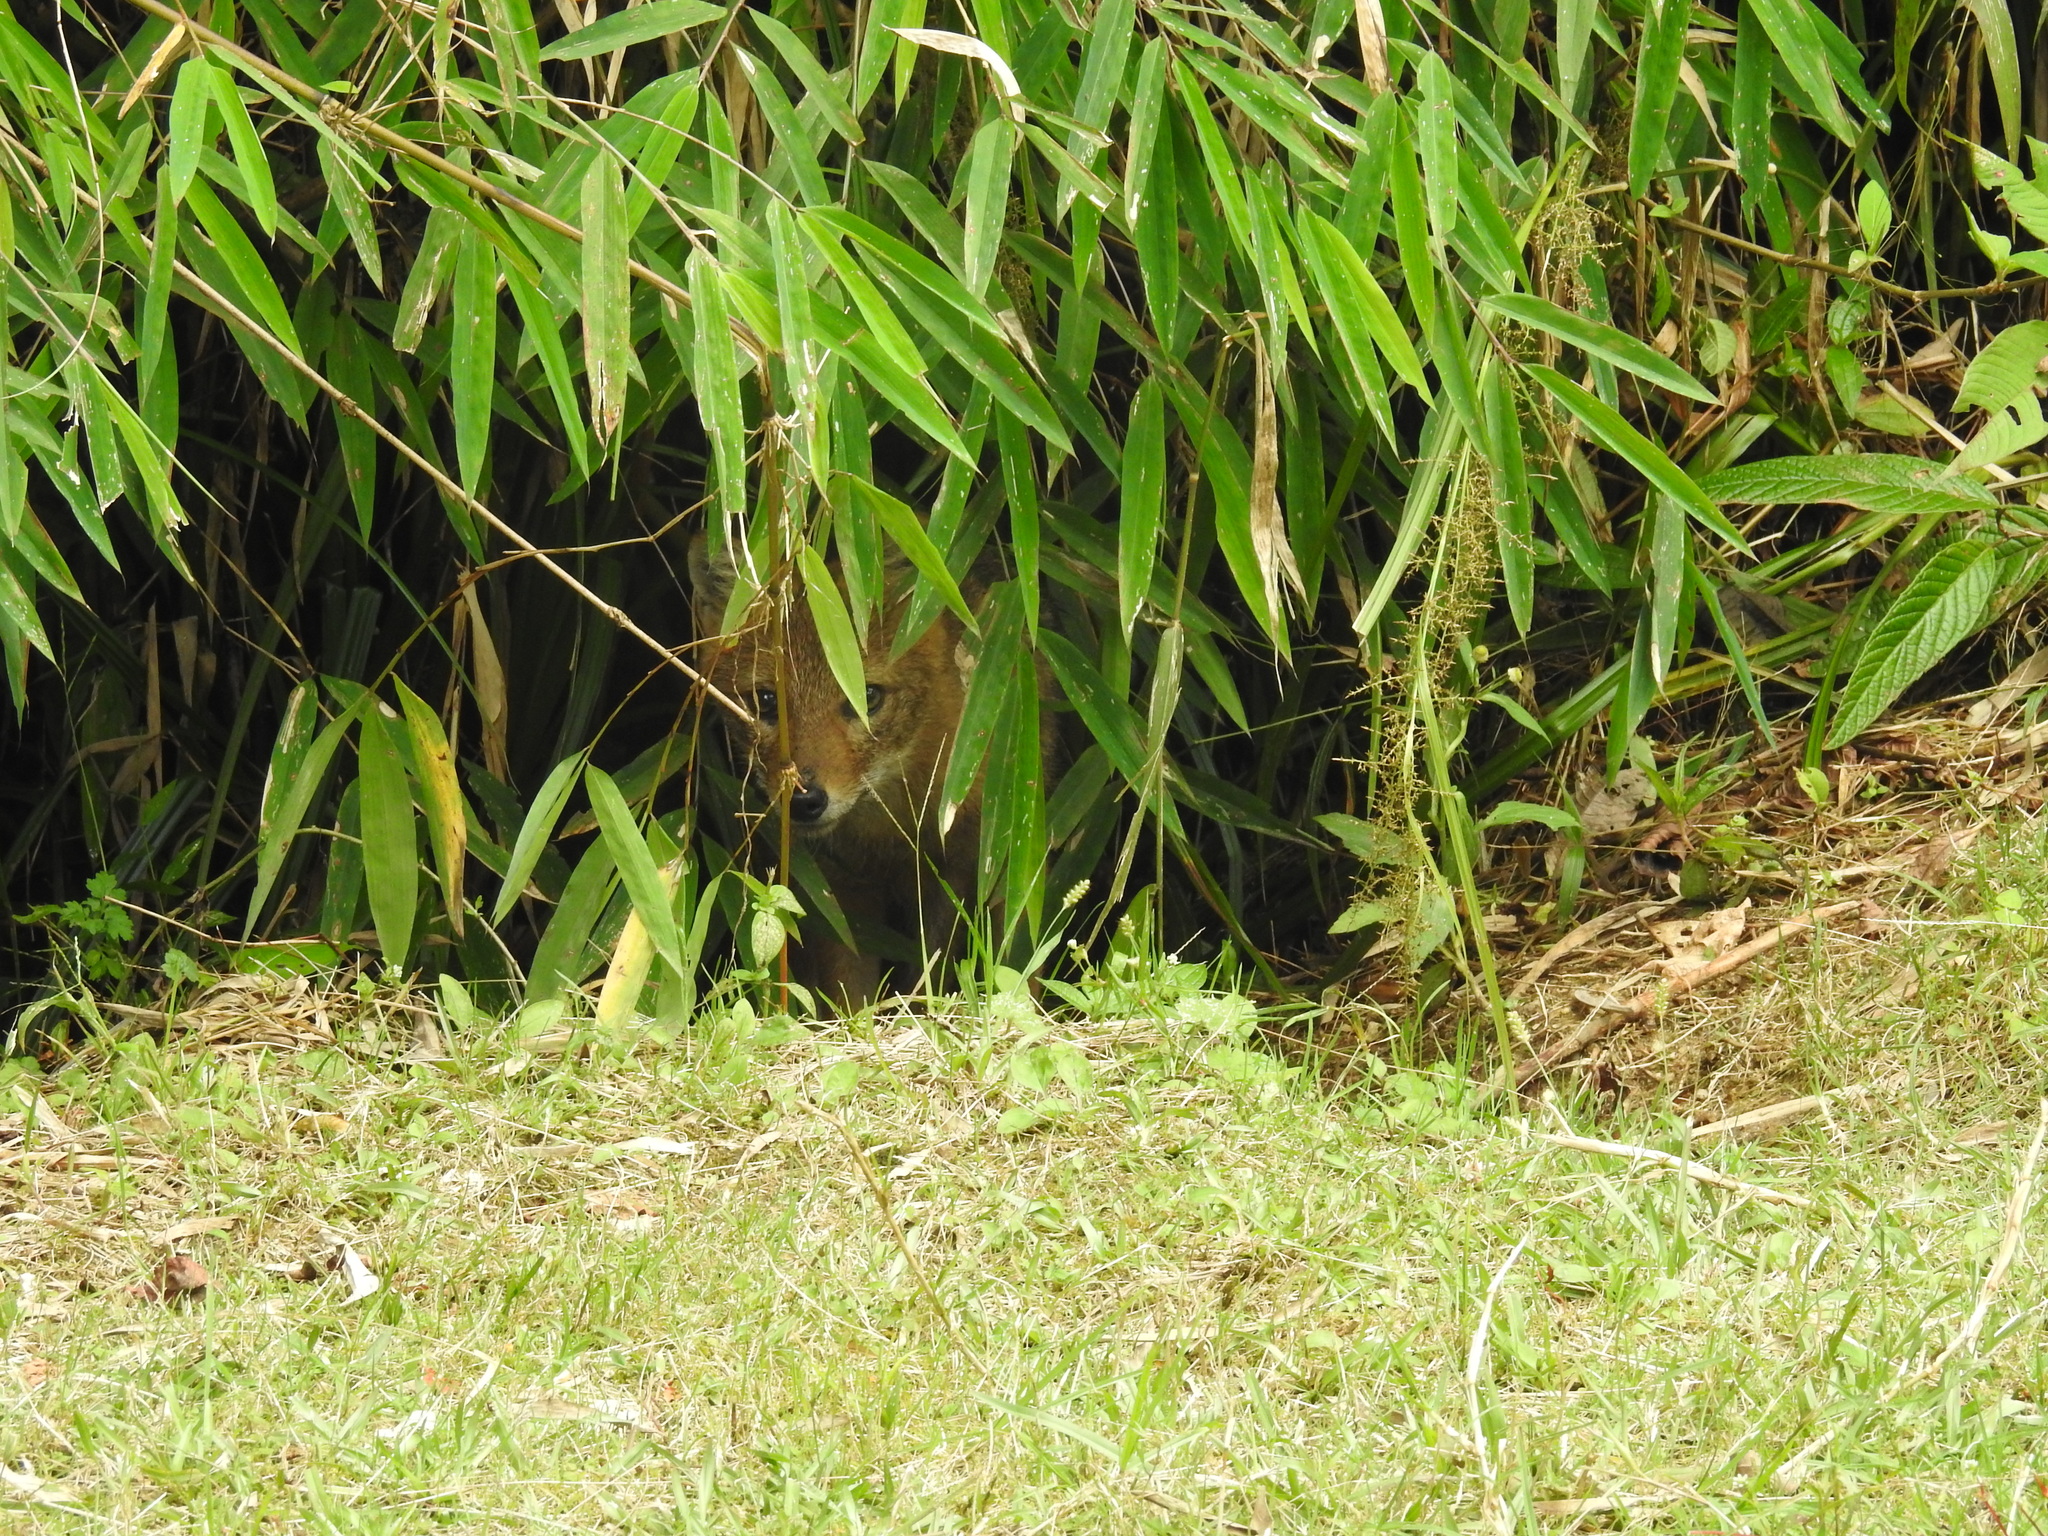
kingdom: Animalia
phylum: Chordata
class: Mammalia
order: Carnivora
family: Canidae
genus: Canis
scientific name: Canis aureus
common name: Golden jackal
